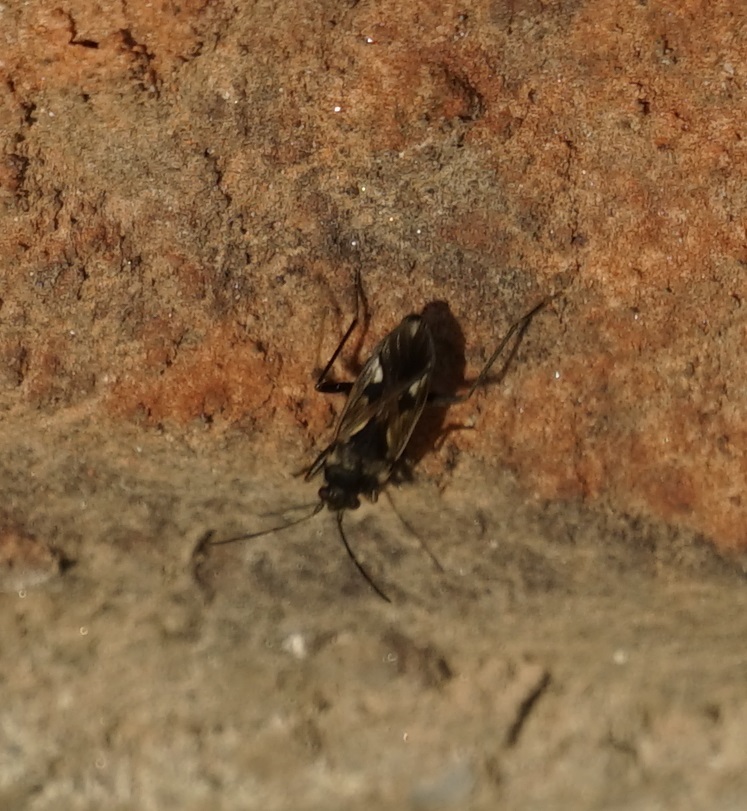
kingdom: Animalia
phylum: Arthropoda
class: Insecta
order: Hemiptera
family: Rhyparochromidae
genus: Rhyparochromus
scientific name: Rhyparochromus vulgaris
